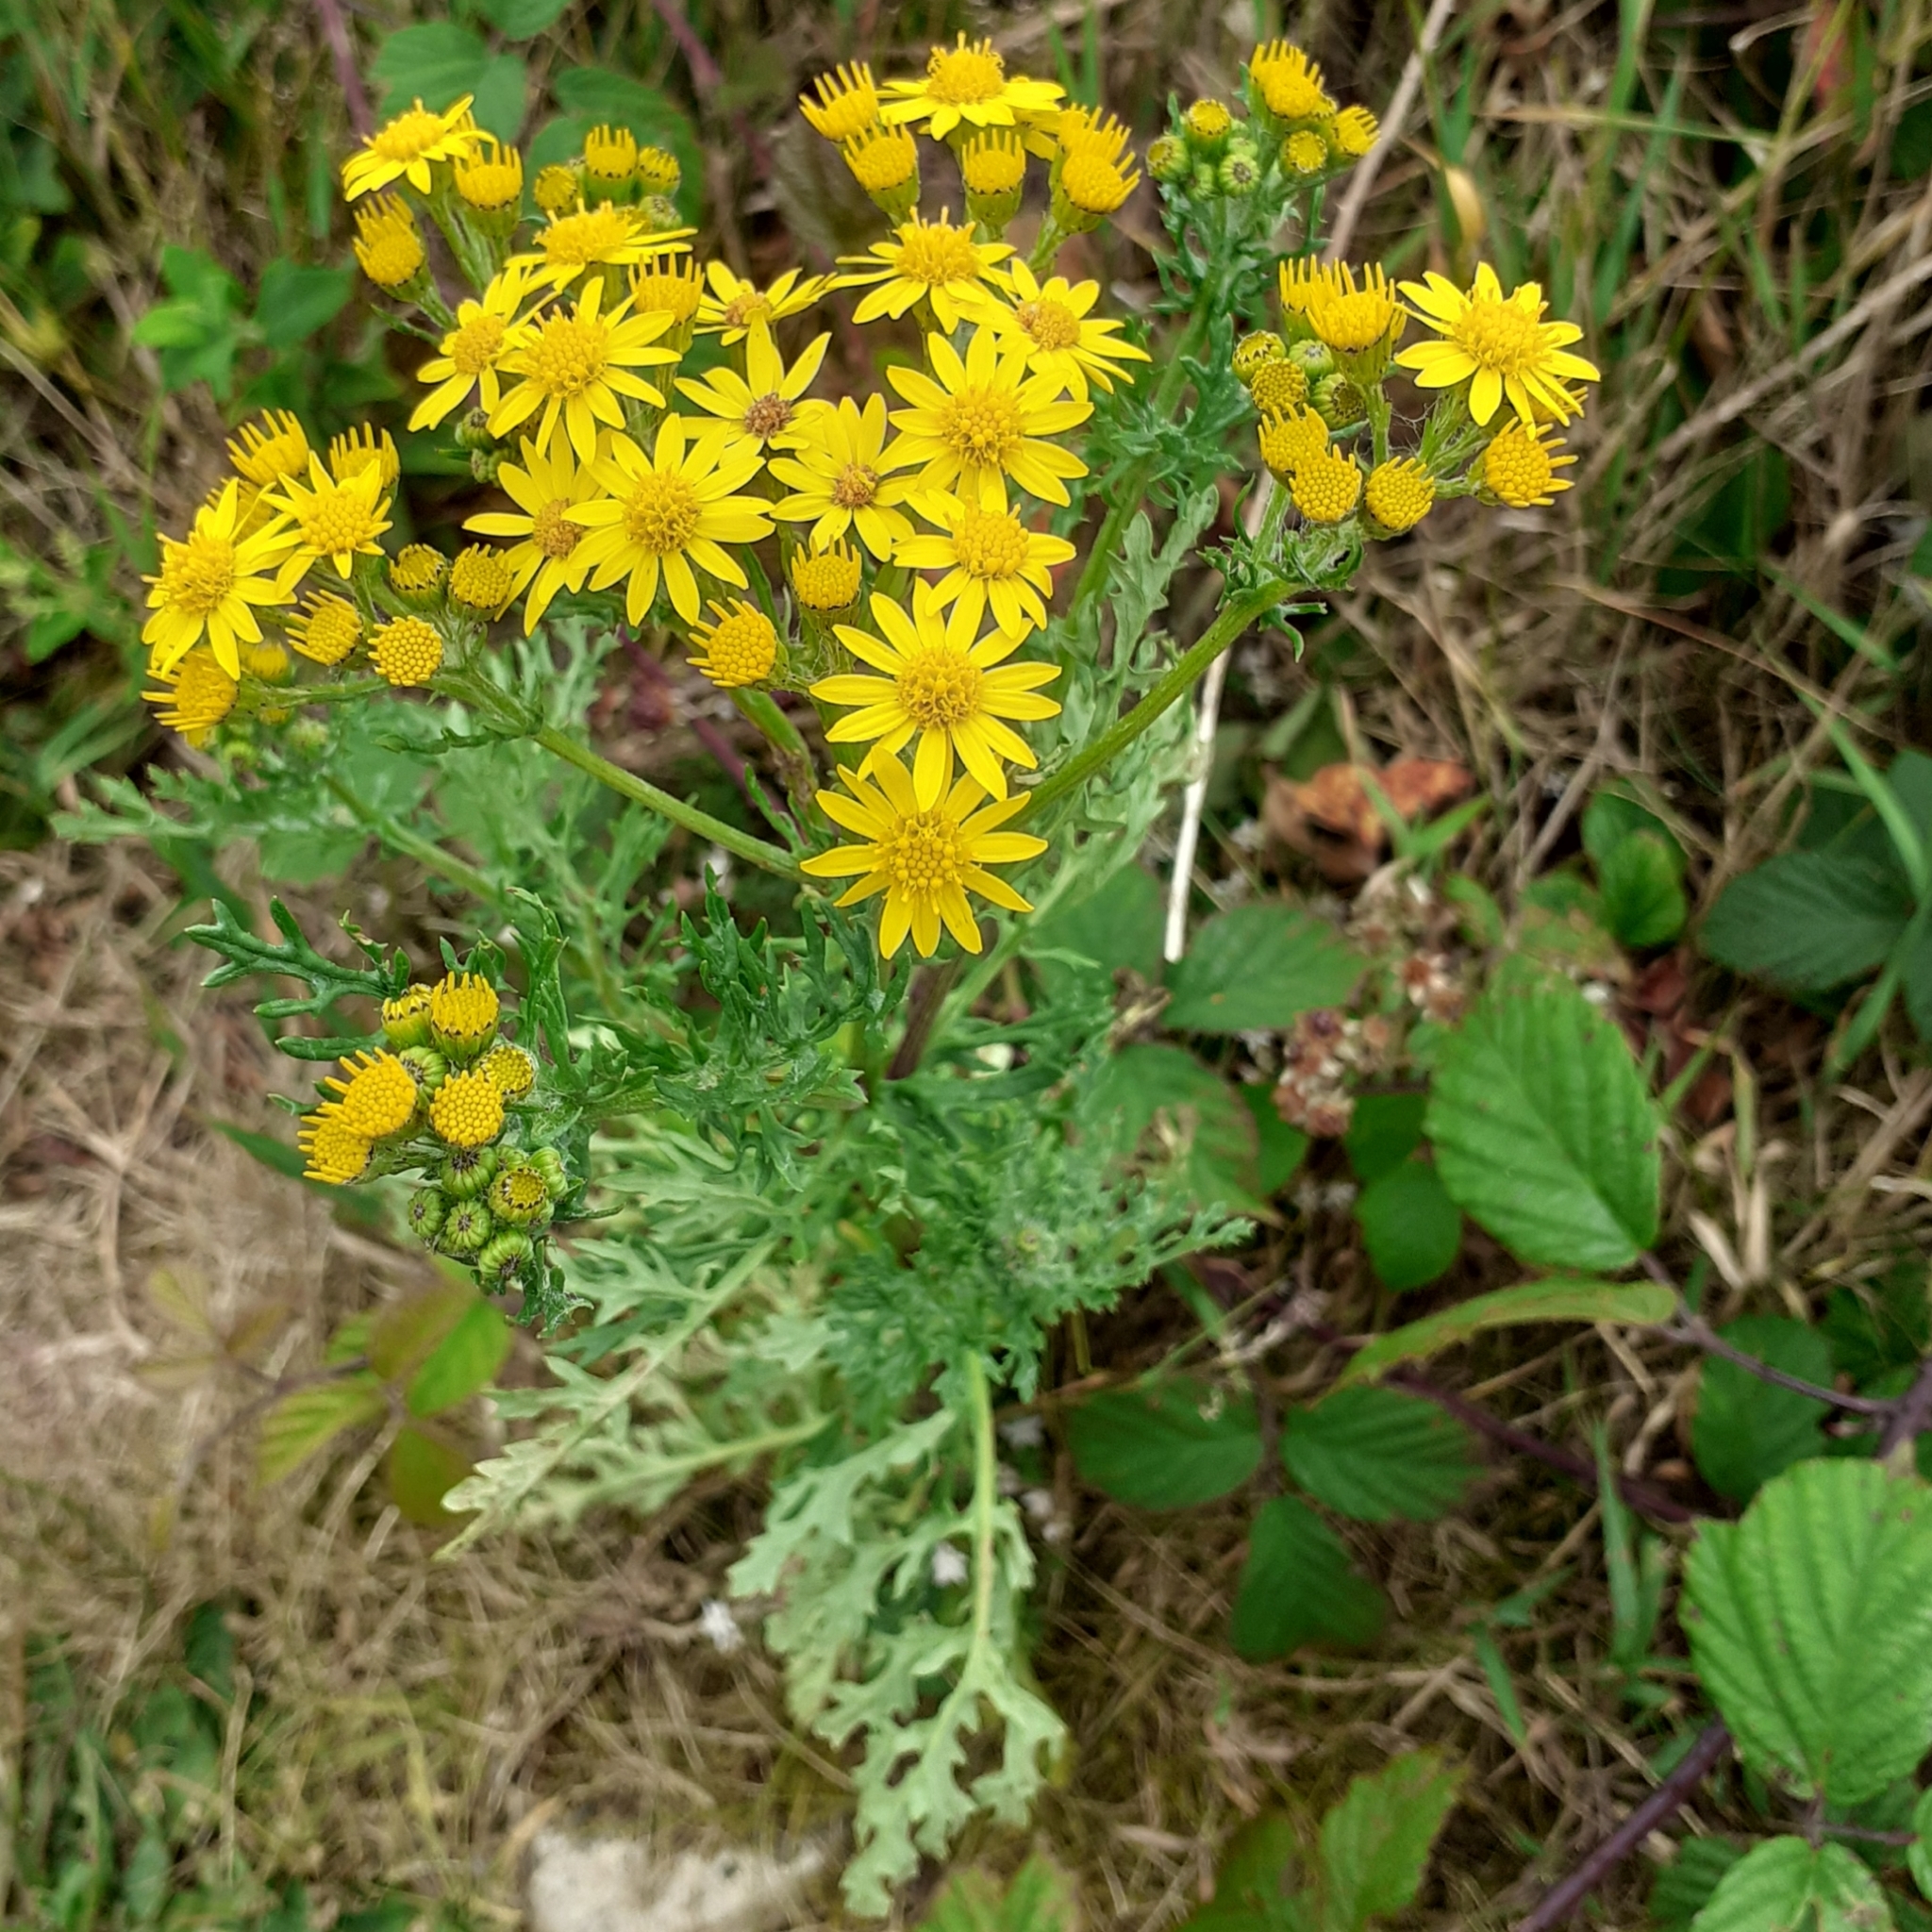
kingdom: Plantae
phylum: Tracheophyta
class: Magnoliopsida
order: Asterales
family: Asteraceae
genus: Jacobaea
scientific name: Jacobaea vulgaris
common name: Stinking willie
